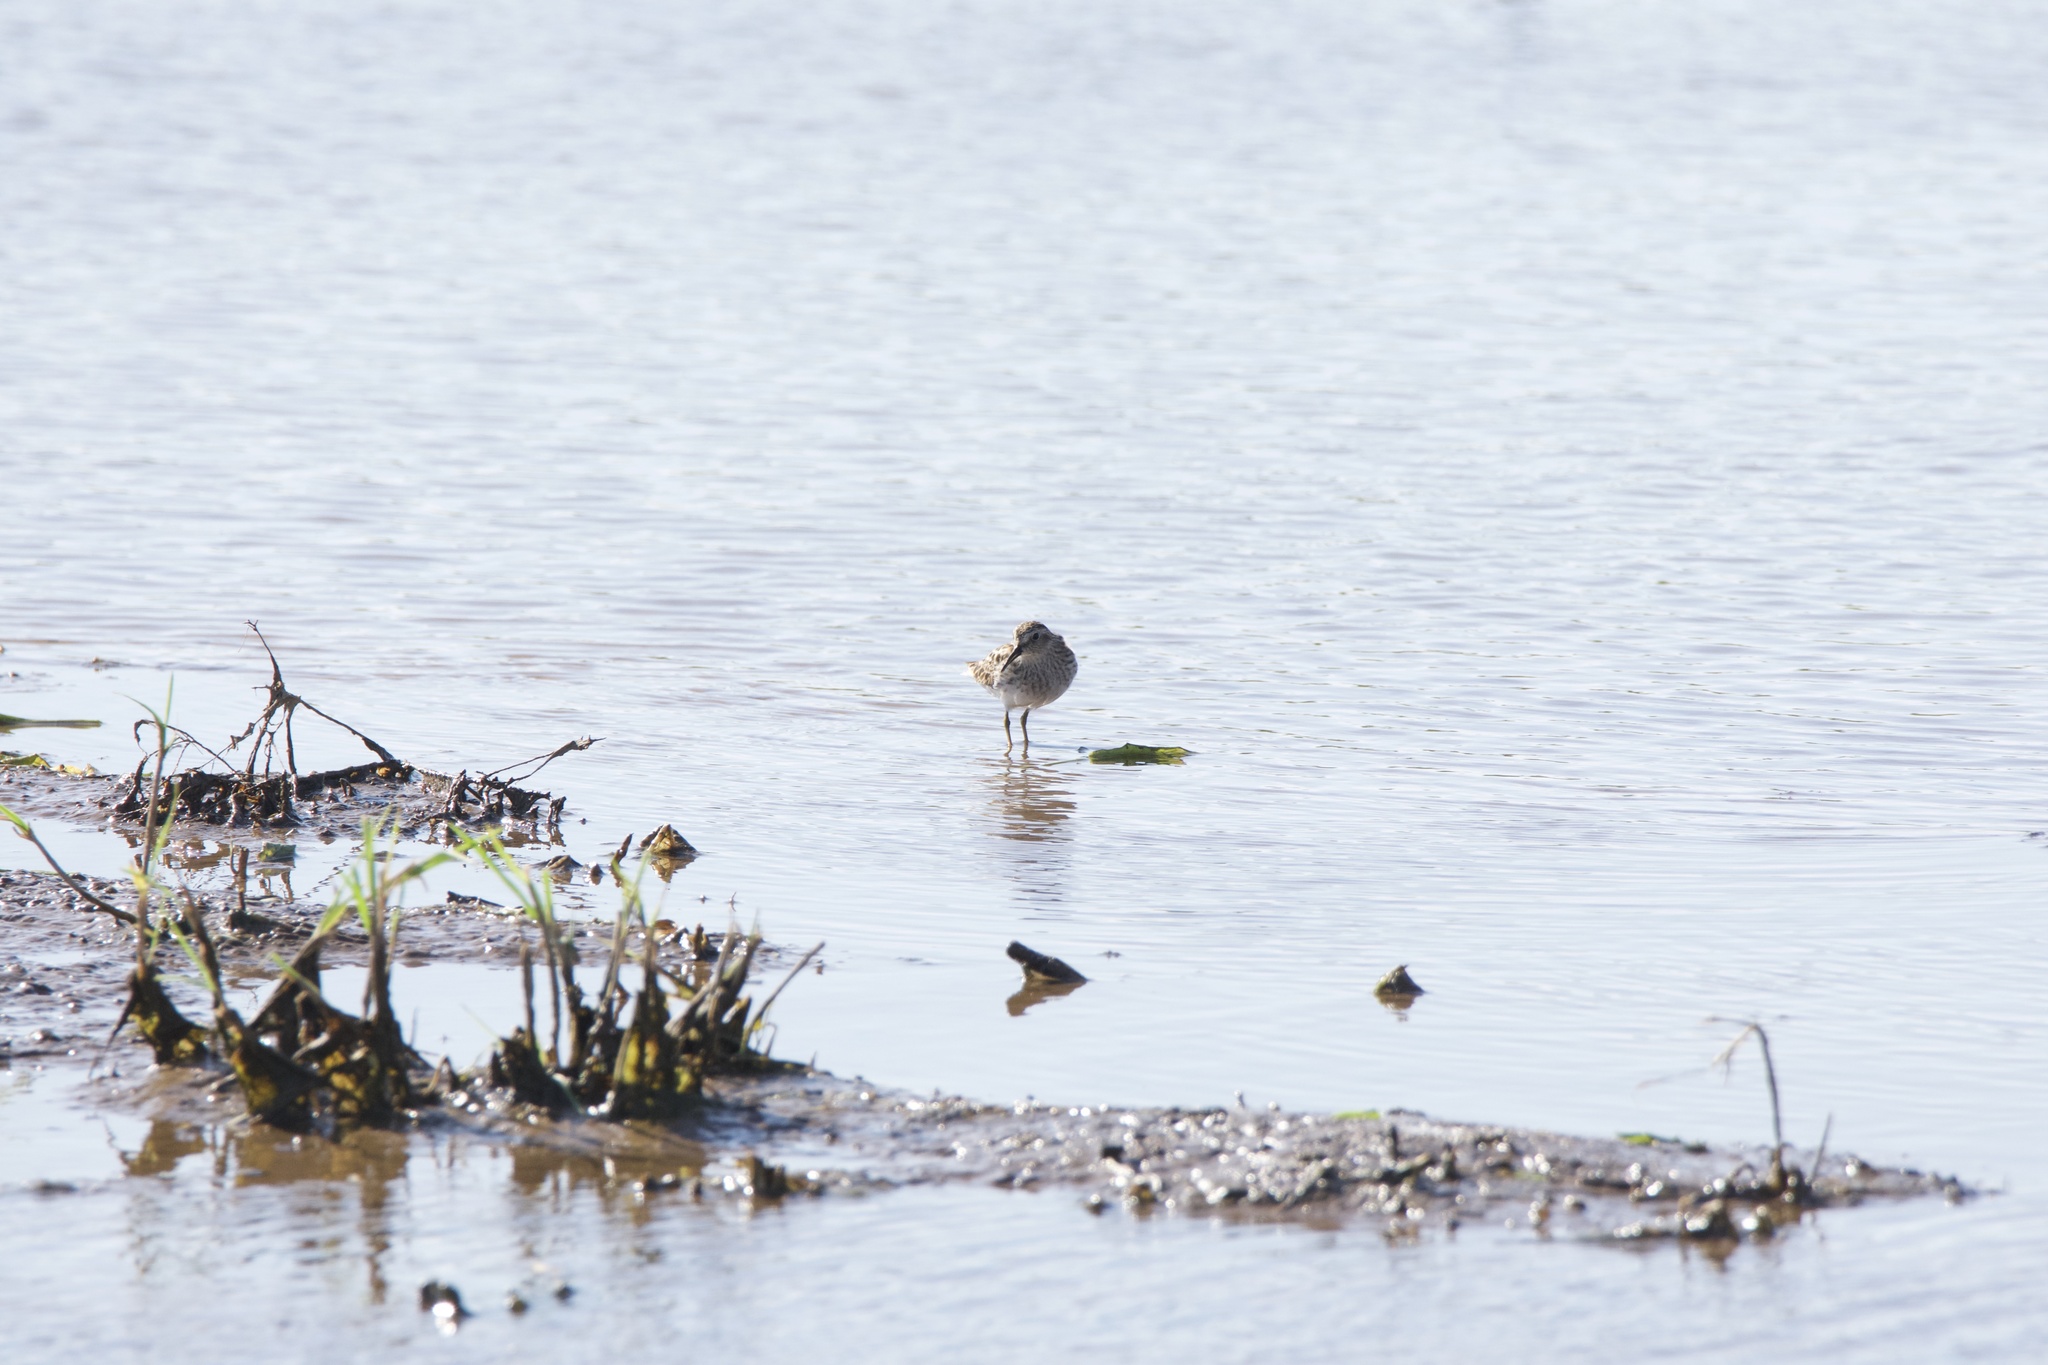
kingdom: Animalia
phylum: Chordata
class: Aves
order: Charadriiformes
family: Scolopacidae
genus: Calidris
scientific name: Calidris minutilla
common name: Least sandpiper
